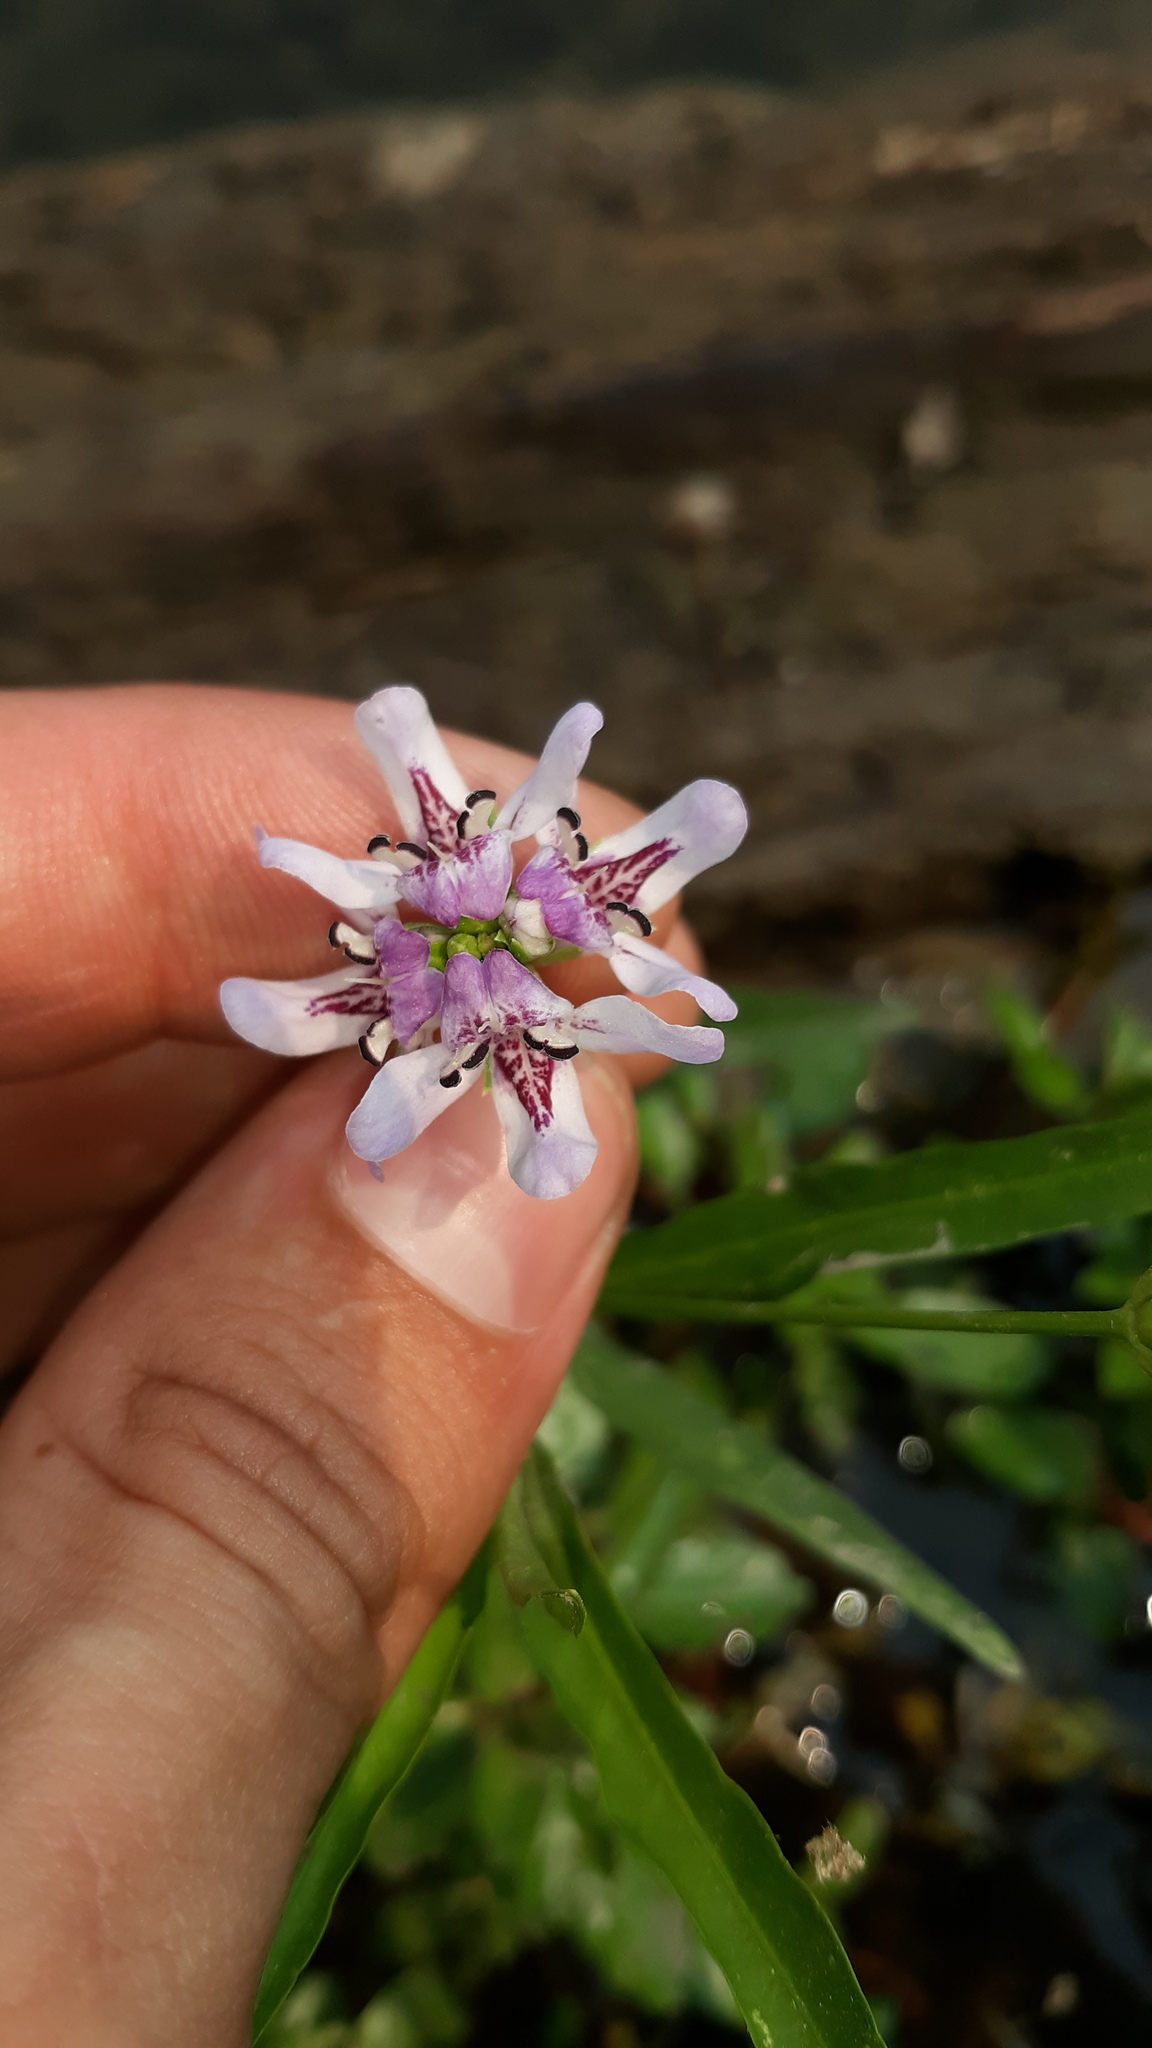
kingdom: Plantae
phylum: Tracheophyta
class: Magnoliopsida
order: Lamiales
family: Acanthaceae
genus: Dianthera
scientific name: Dianthera americana
